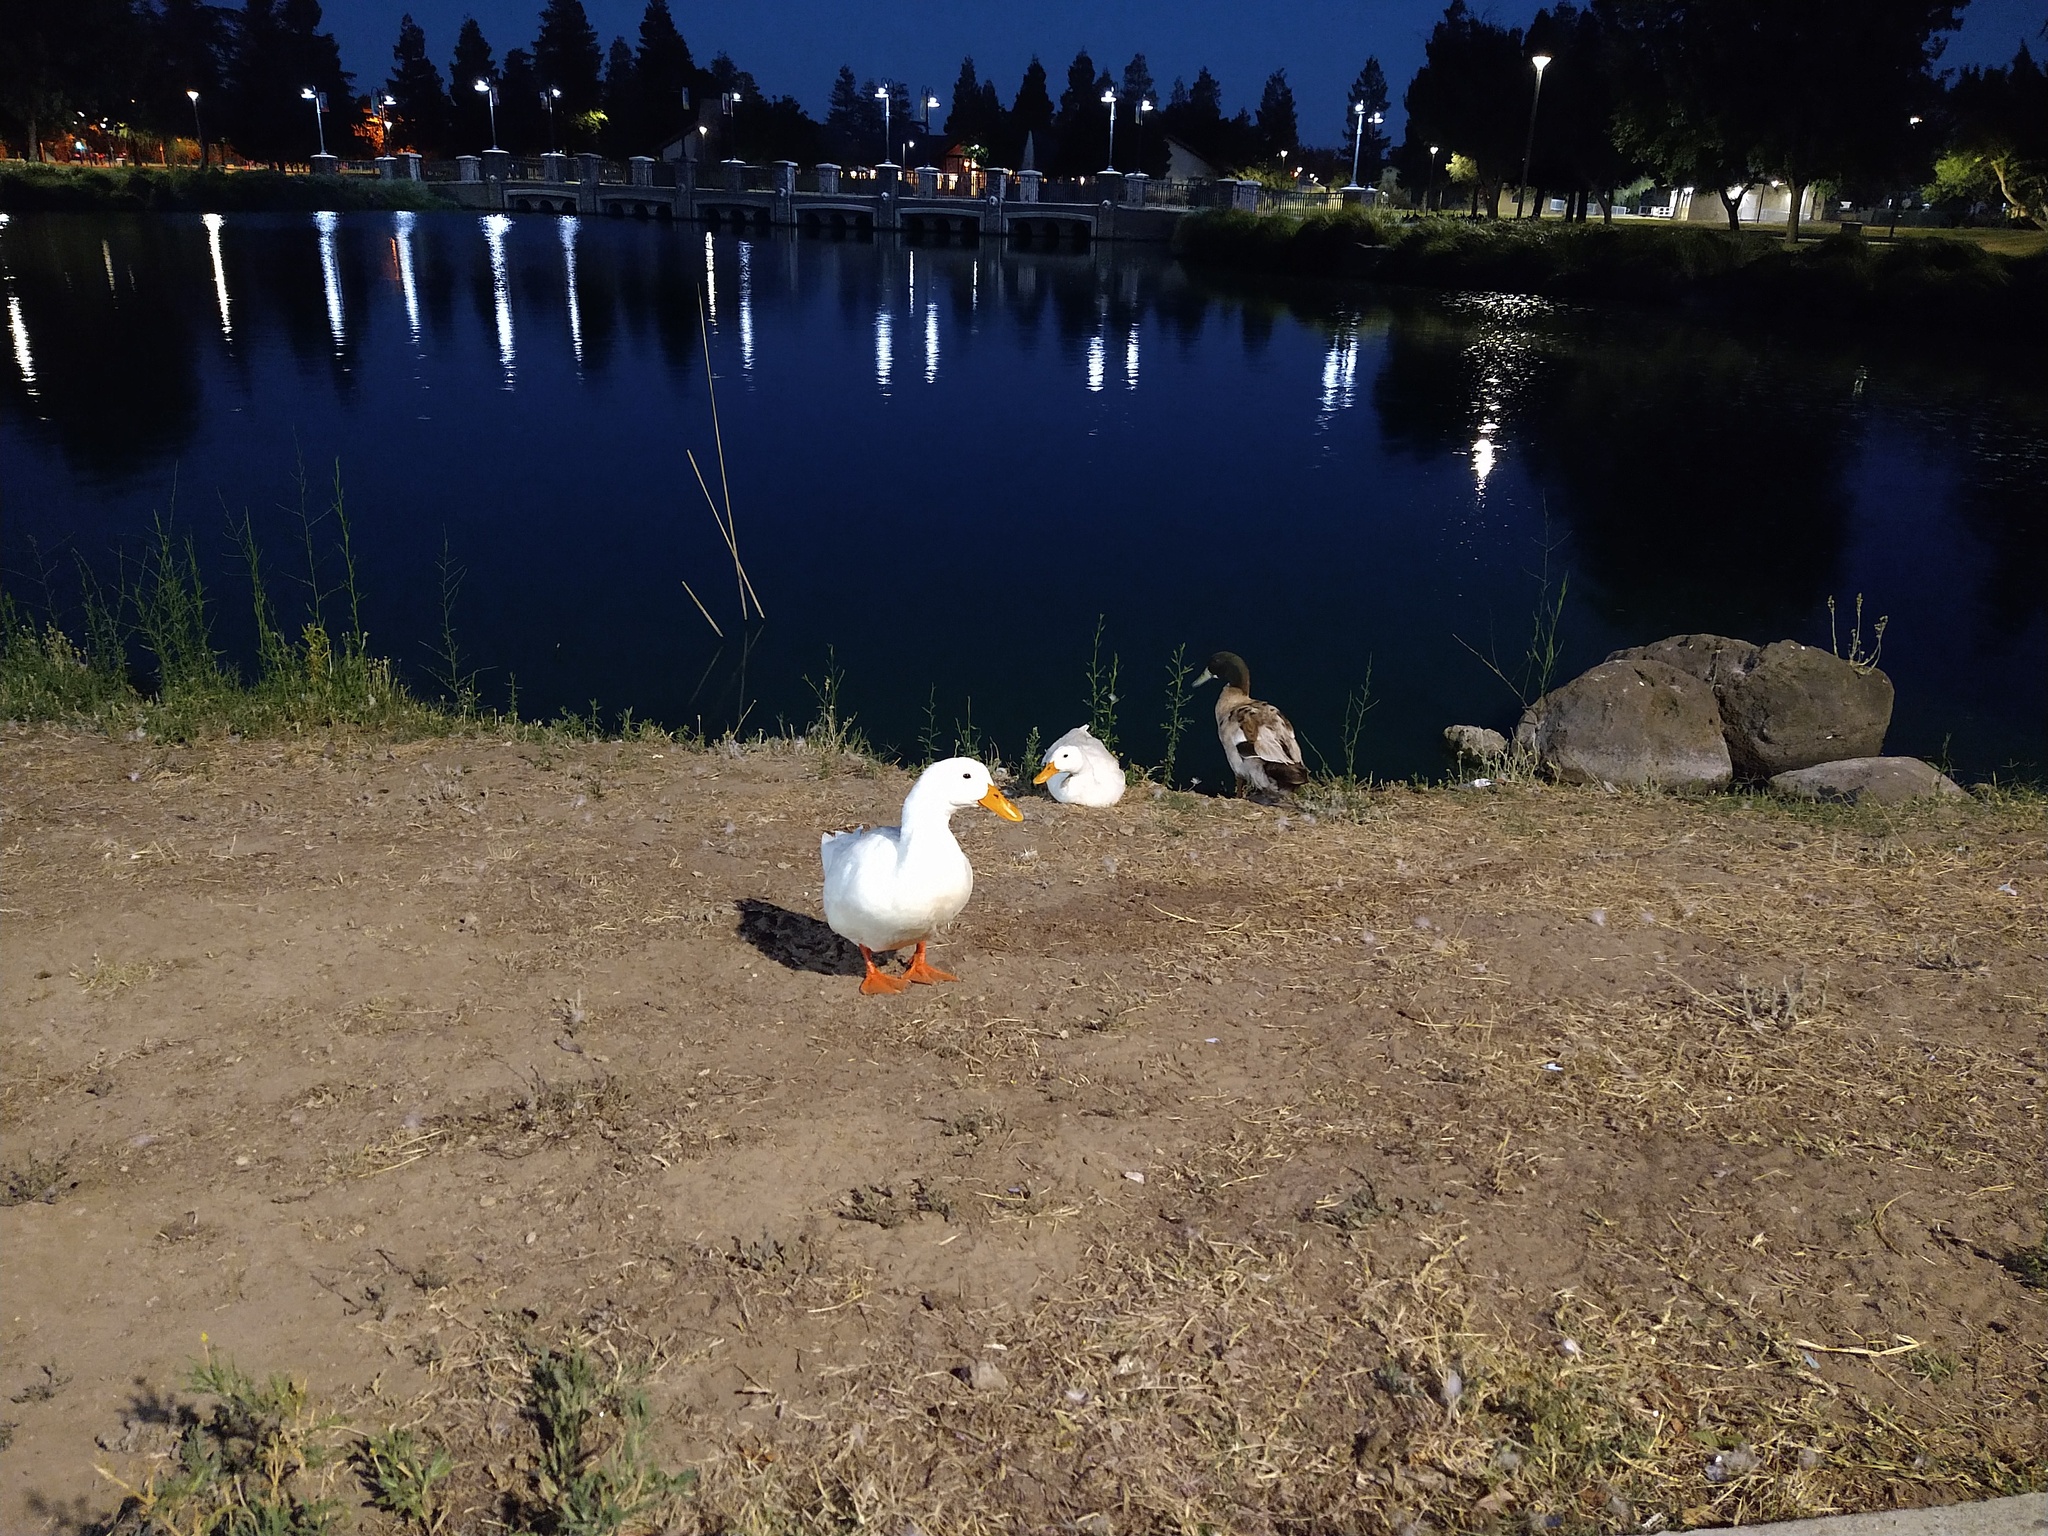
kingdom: Animalia
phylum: Chordata
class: Aves
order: Anseriformes
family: Anatidae
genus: Anas
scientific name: Anas platyrhynchos
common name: Mallard
